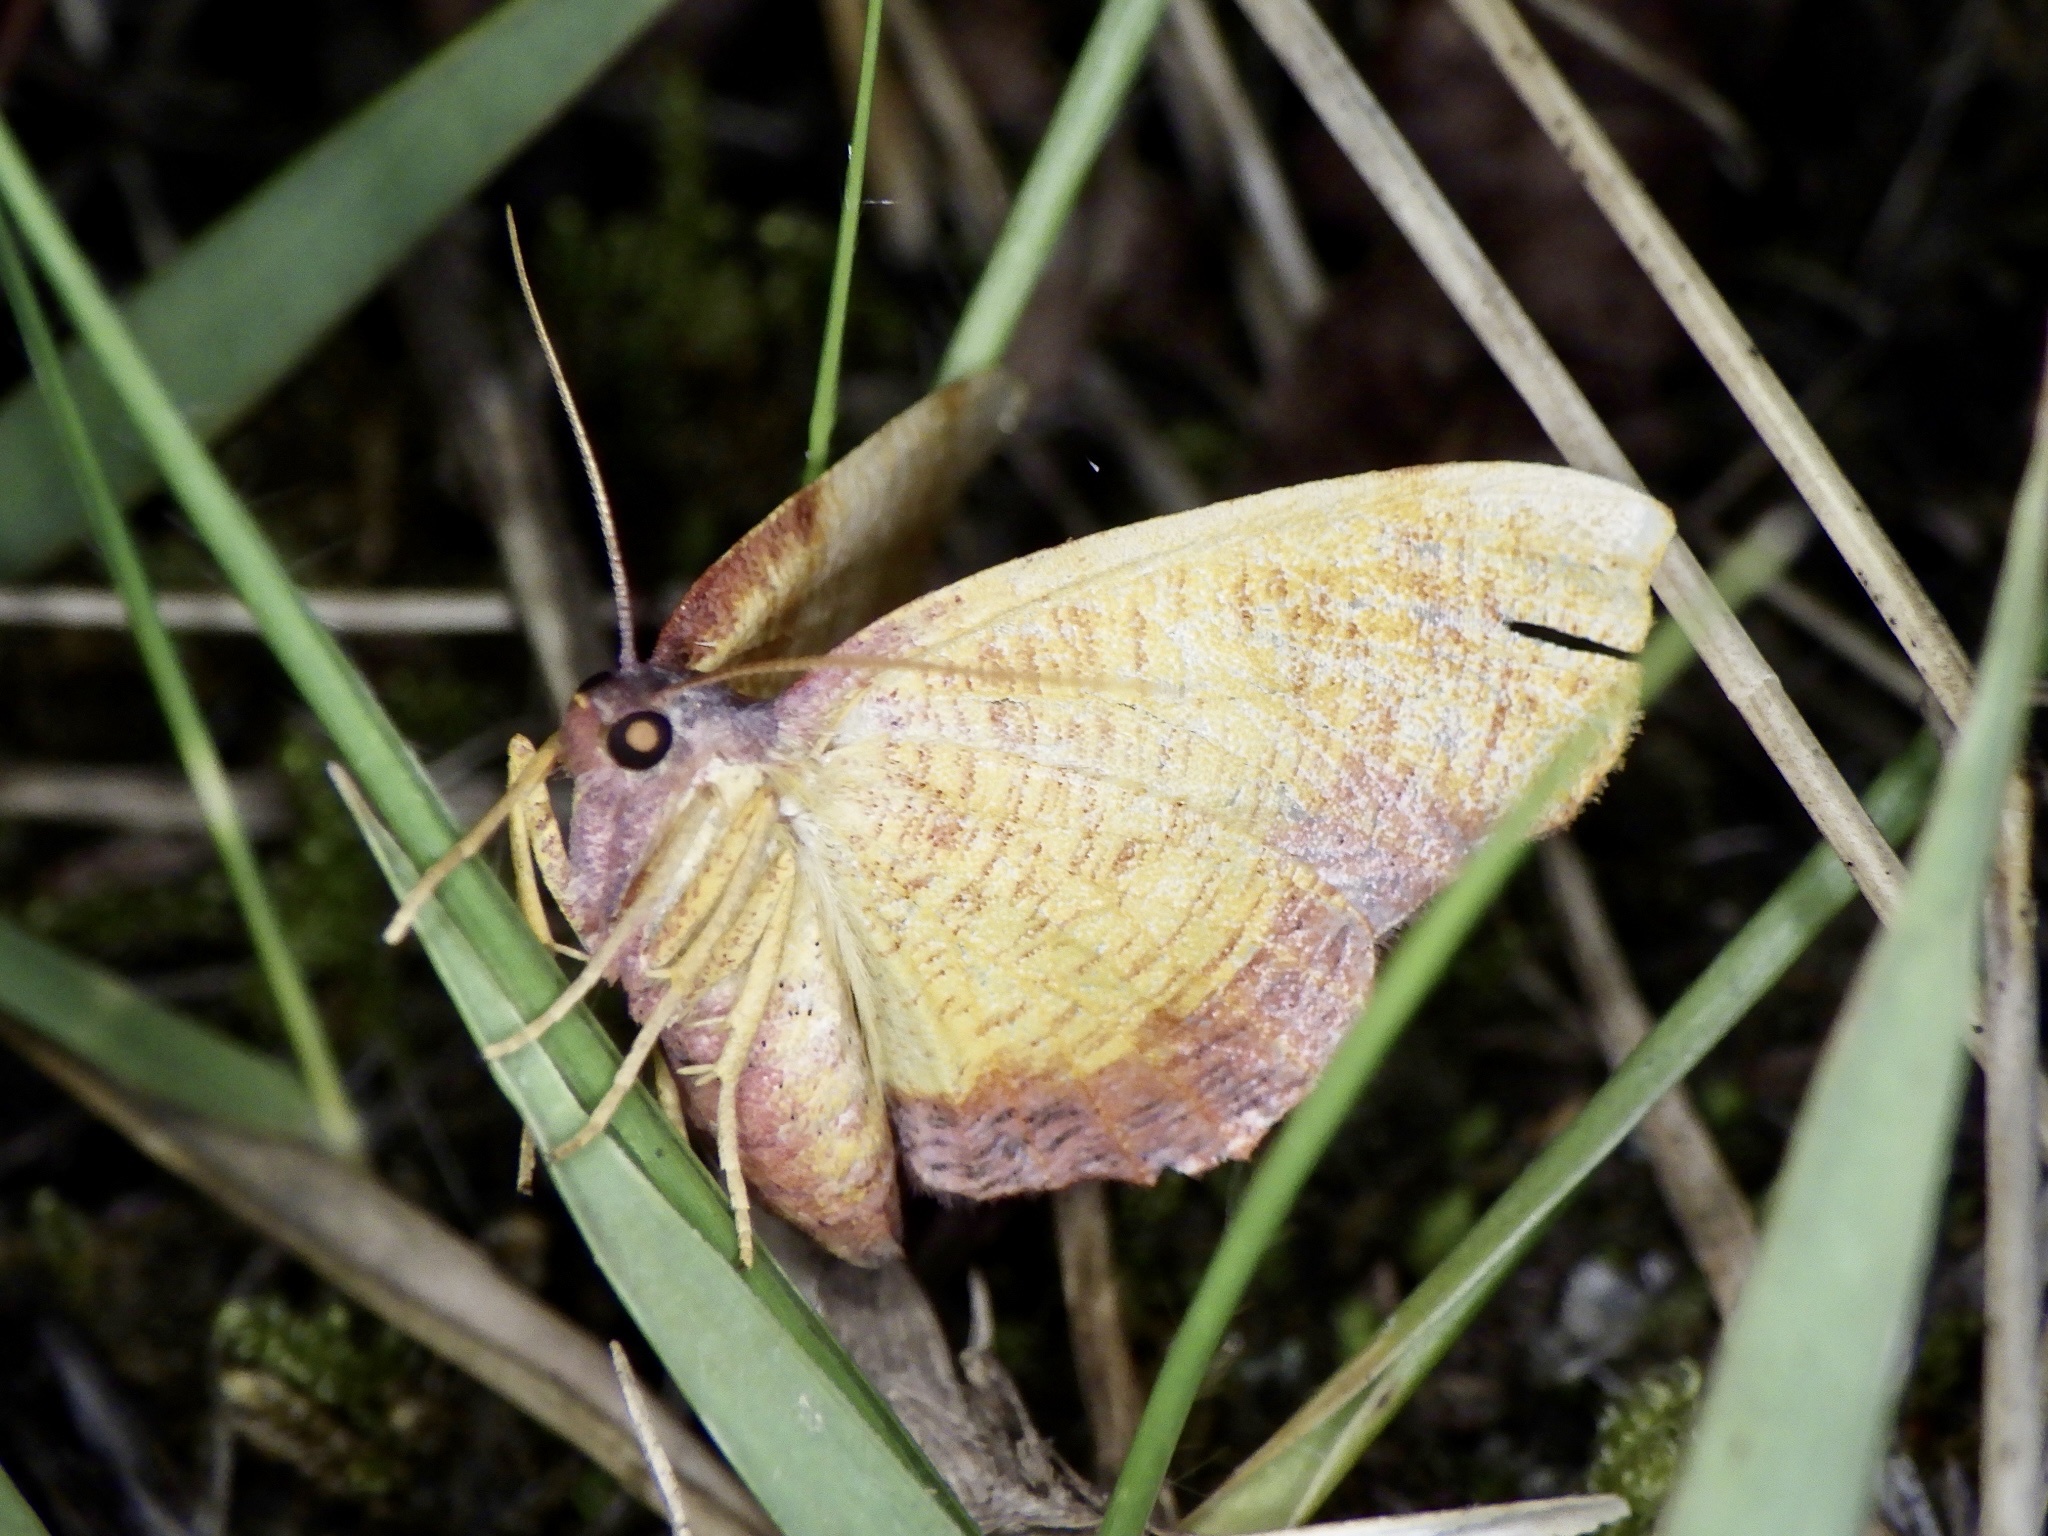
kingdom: Animalia
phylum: Arthropoda
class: Insecta
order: Lepidoptera
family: Geometridae
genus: Plagodis
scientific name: Plagodis dolabraria
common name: Scorched wing
